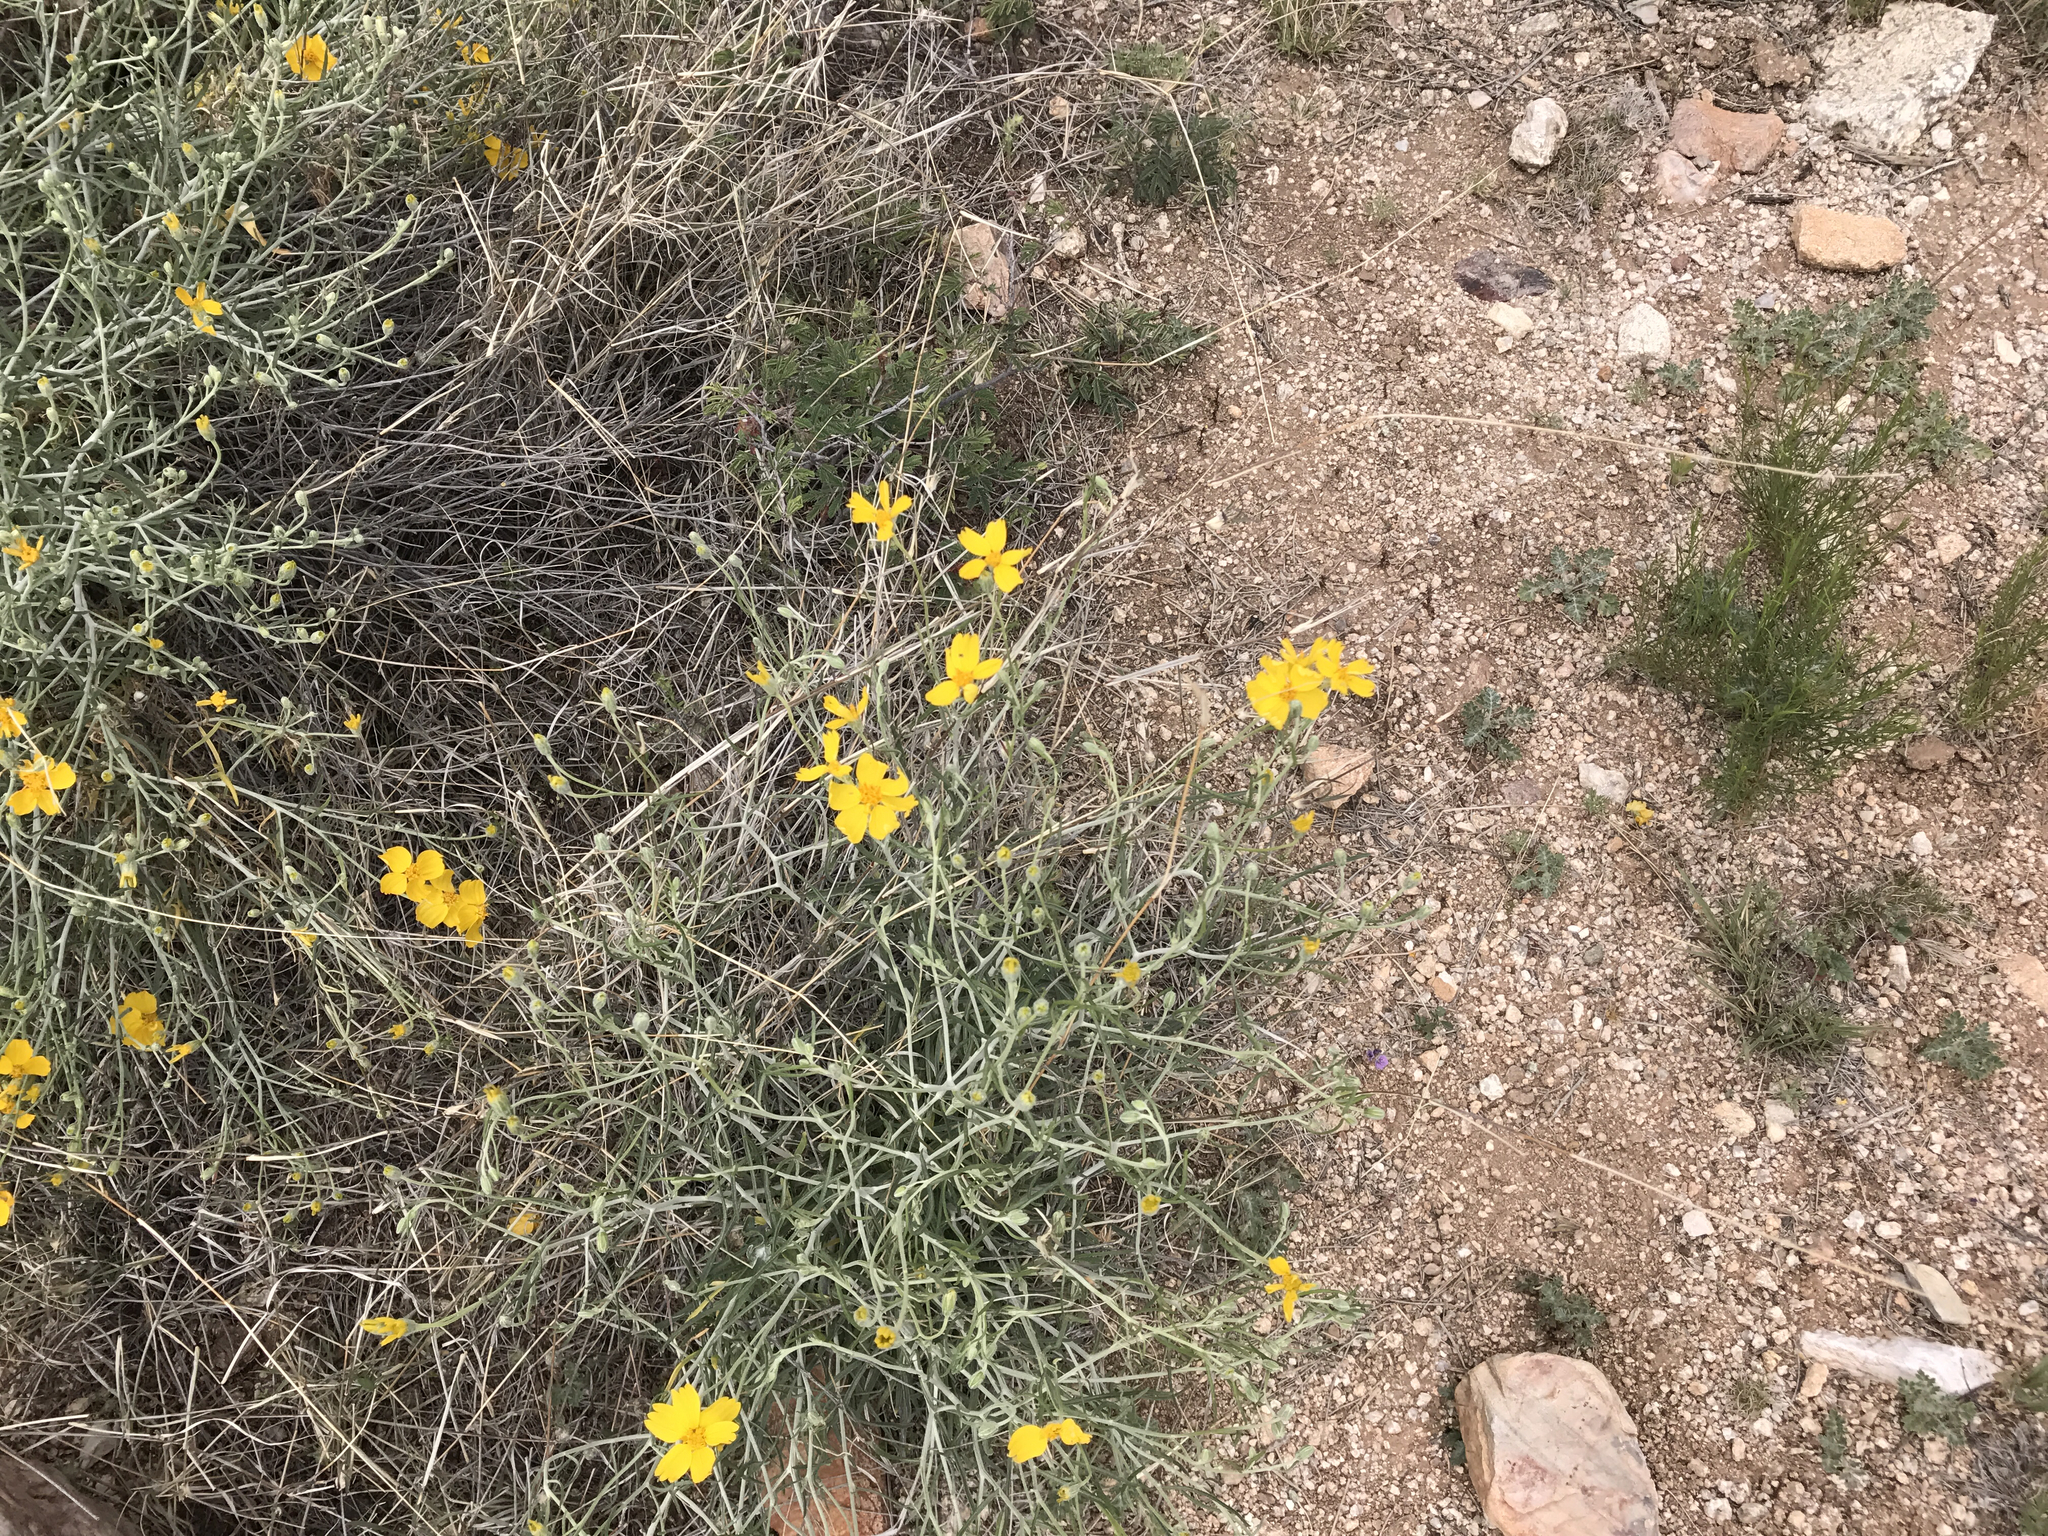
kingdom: Plantae
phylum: Tracheophyta
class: Magnoliopsida
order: Asterales
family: Asteraceae
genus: Psilostrophe
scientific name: Psilostrophe cooperi
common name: White-stem paper-flower
